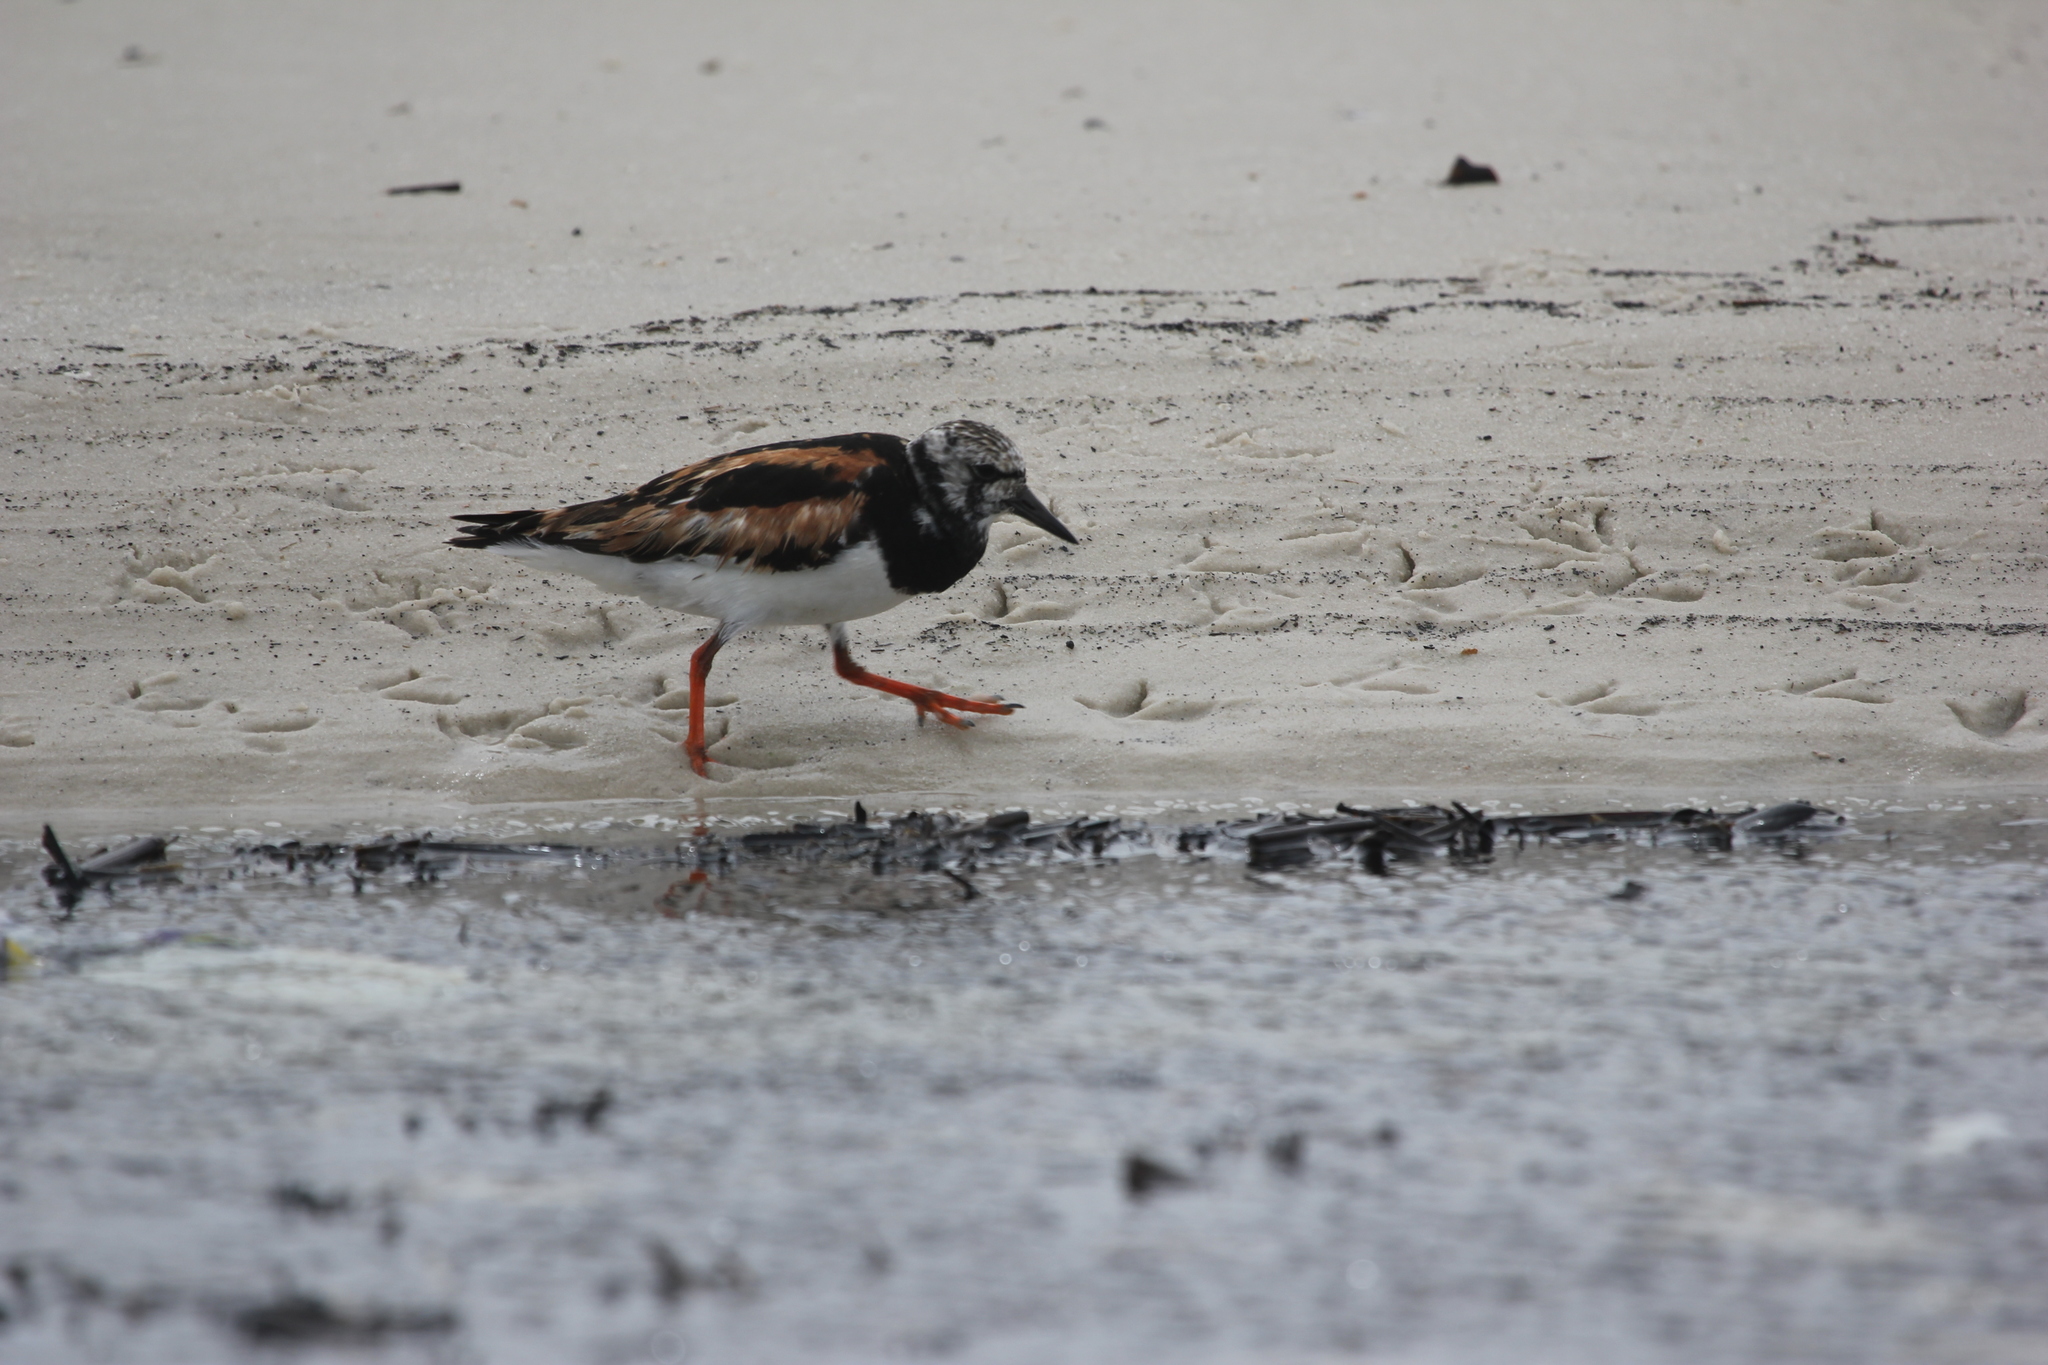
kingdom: Animalia
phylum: Chordata
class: Aves
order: Charadriiformes
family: Scolopacidae
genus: Arenaria
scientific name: Arenaria interpres
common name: Ruddy turnstone
